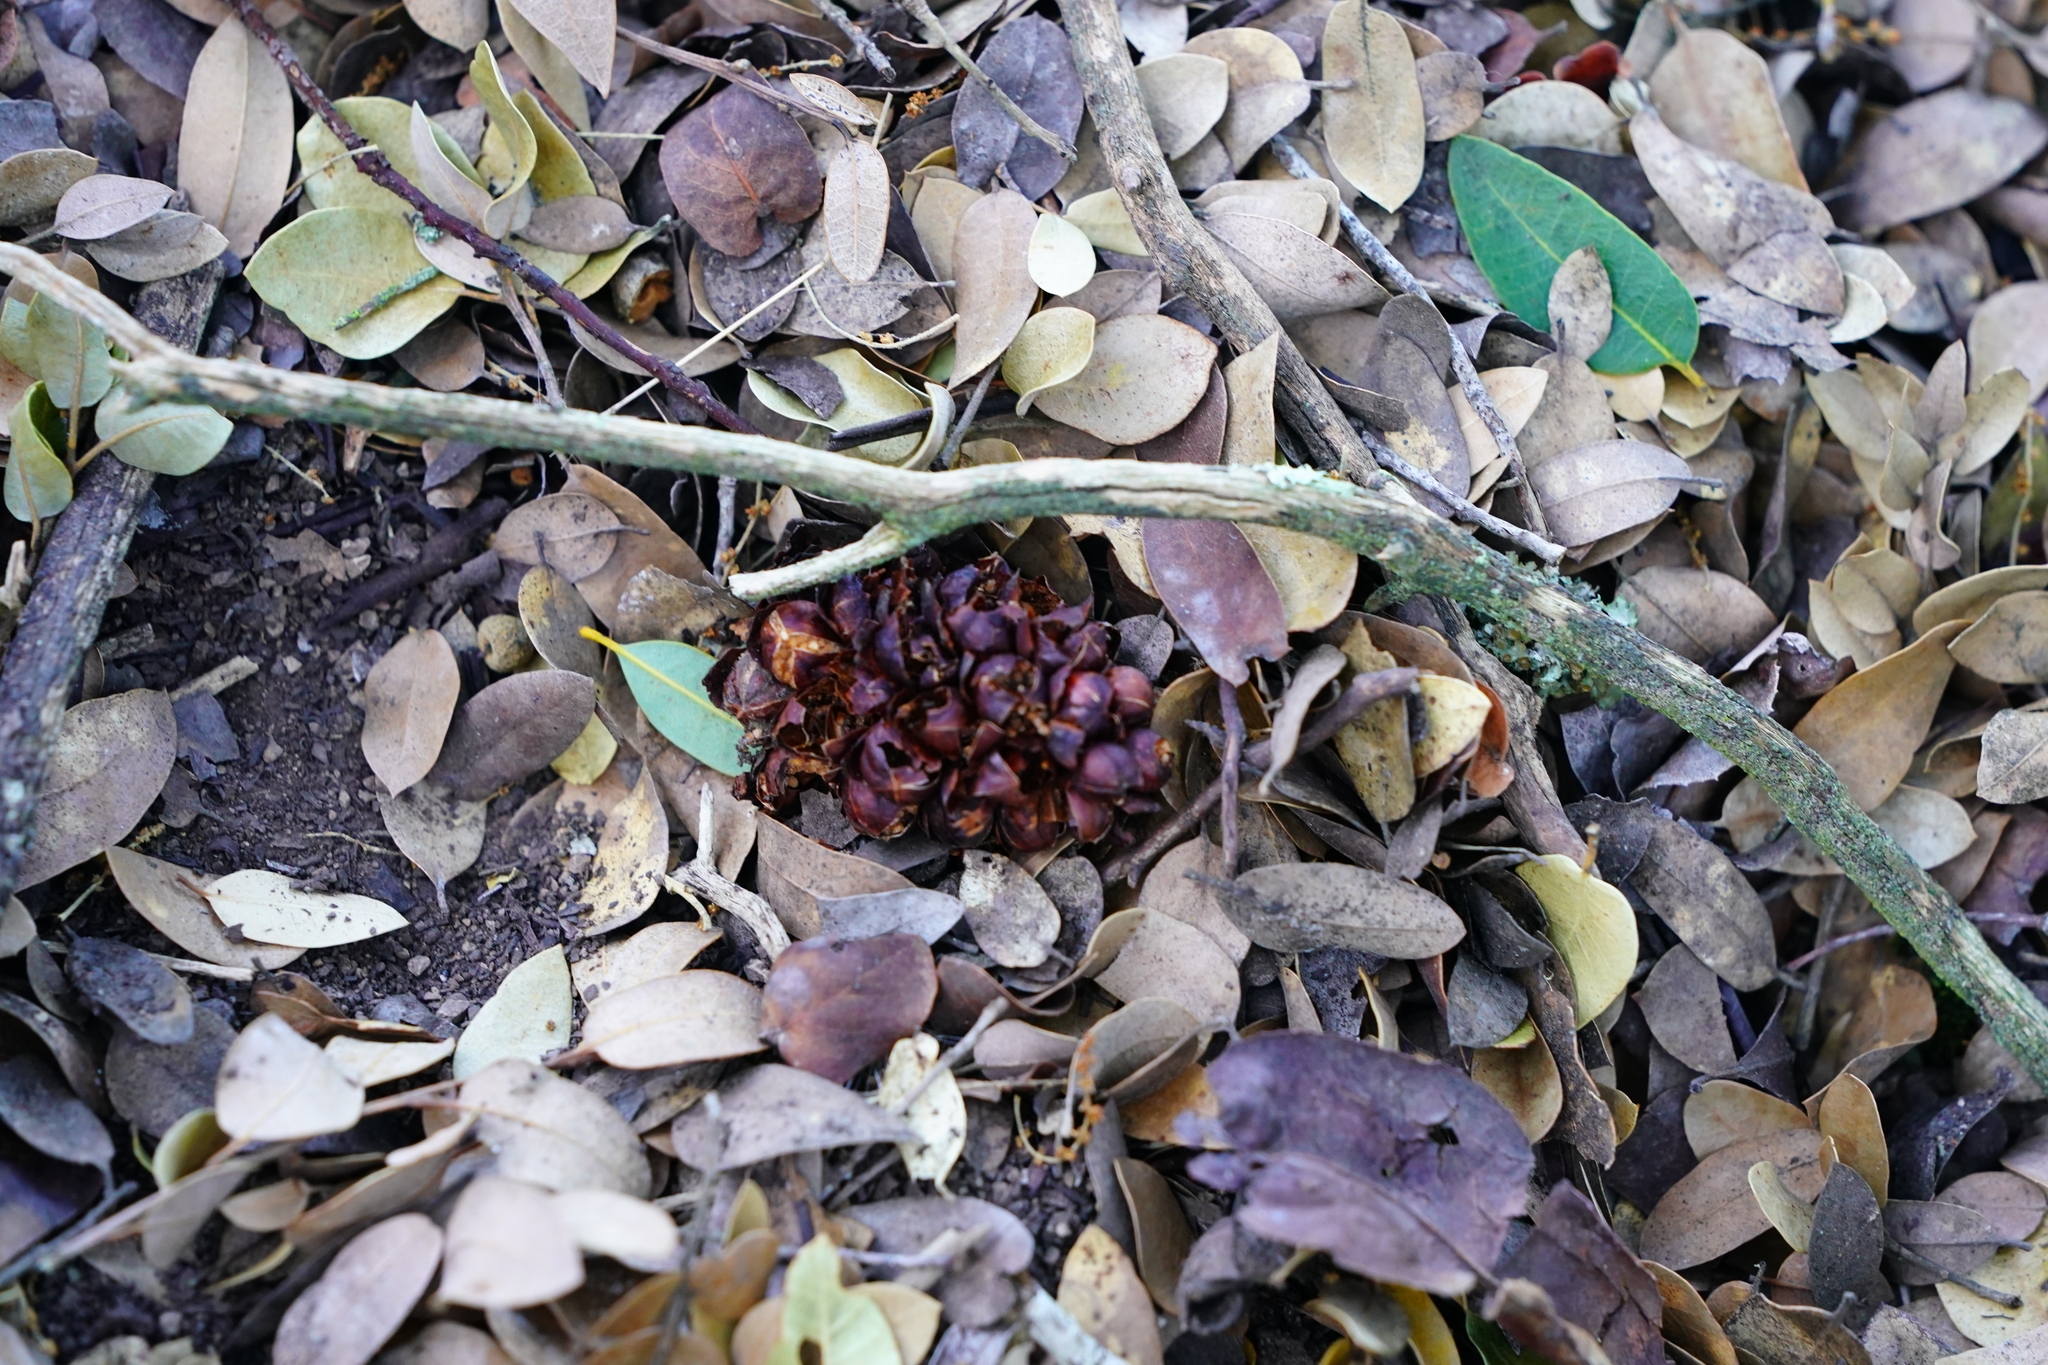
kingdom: Plantae
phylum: Tracheophyta
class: Magnoliopsida
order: Lamiales
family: Orobanchaceae
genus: Kopsiopsis
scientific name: Kopsiopsis strobilacea
